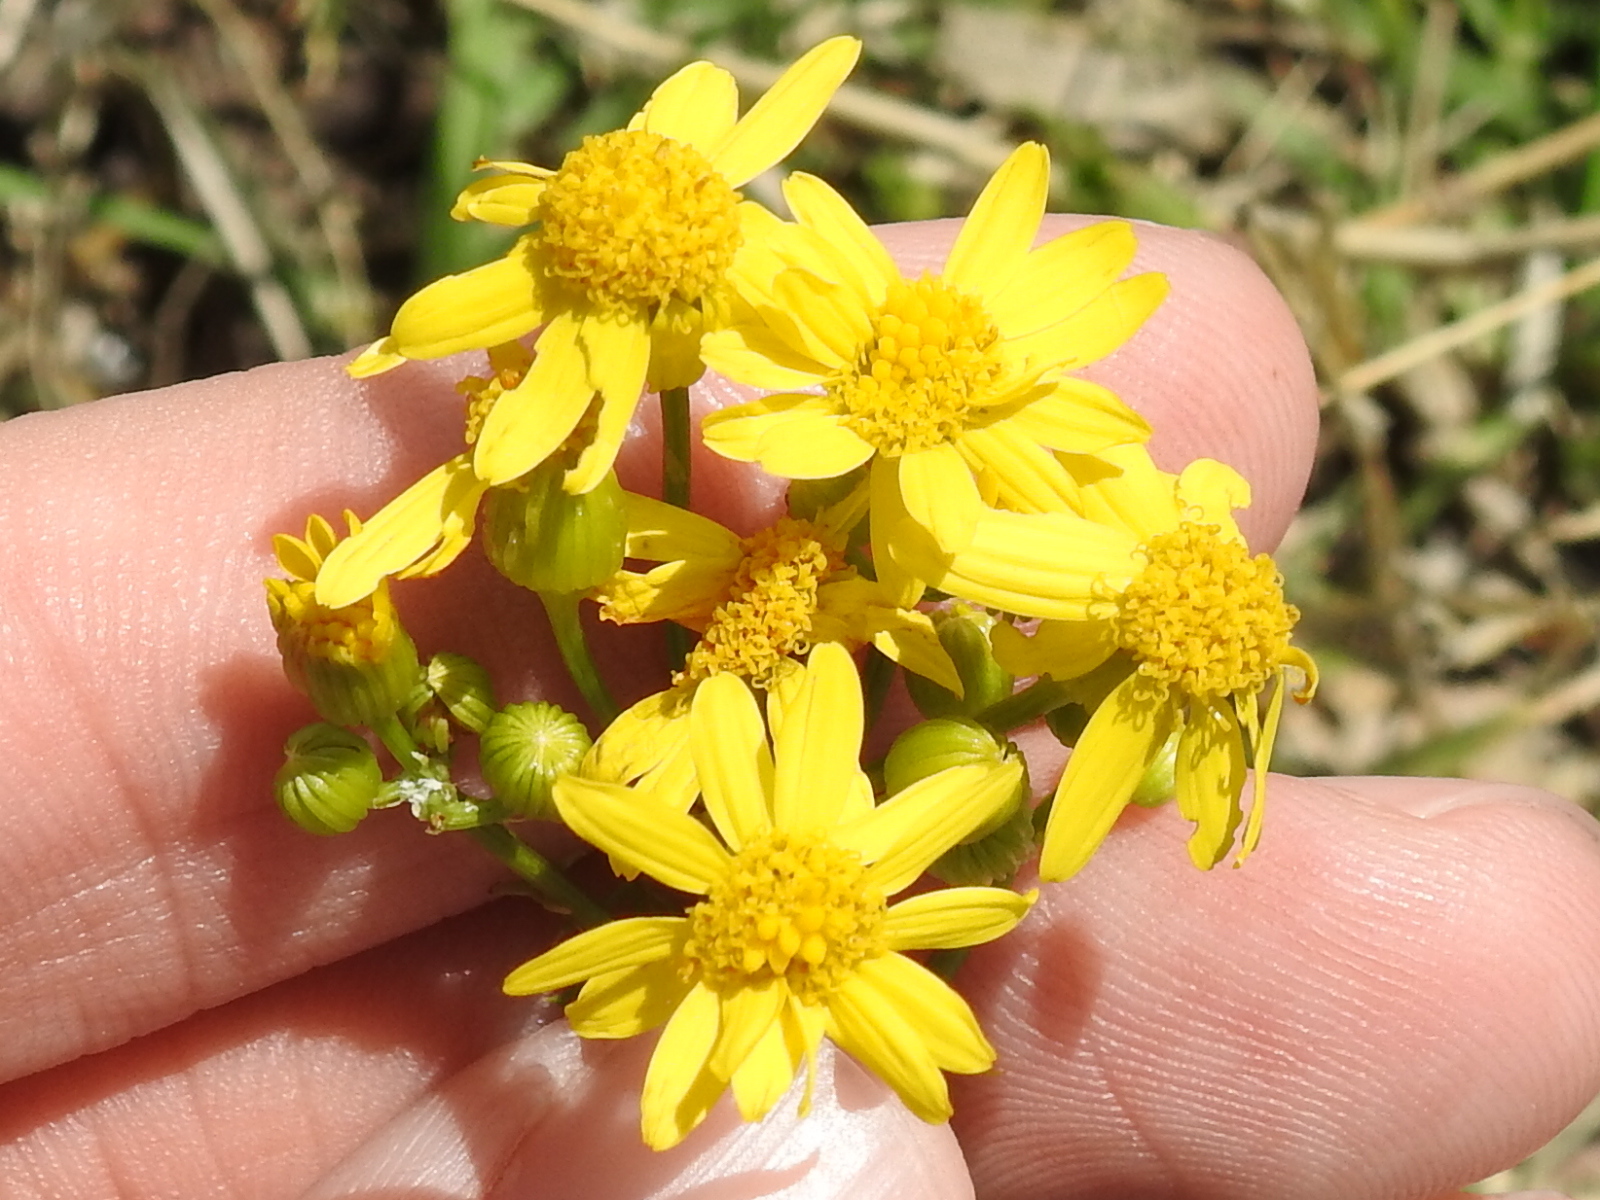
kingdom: Plantae
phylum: Tracheophyta
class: Magnoliopsida
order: Asterales
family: Asteraceae
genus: Packera
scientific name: Packera tampicana
